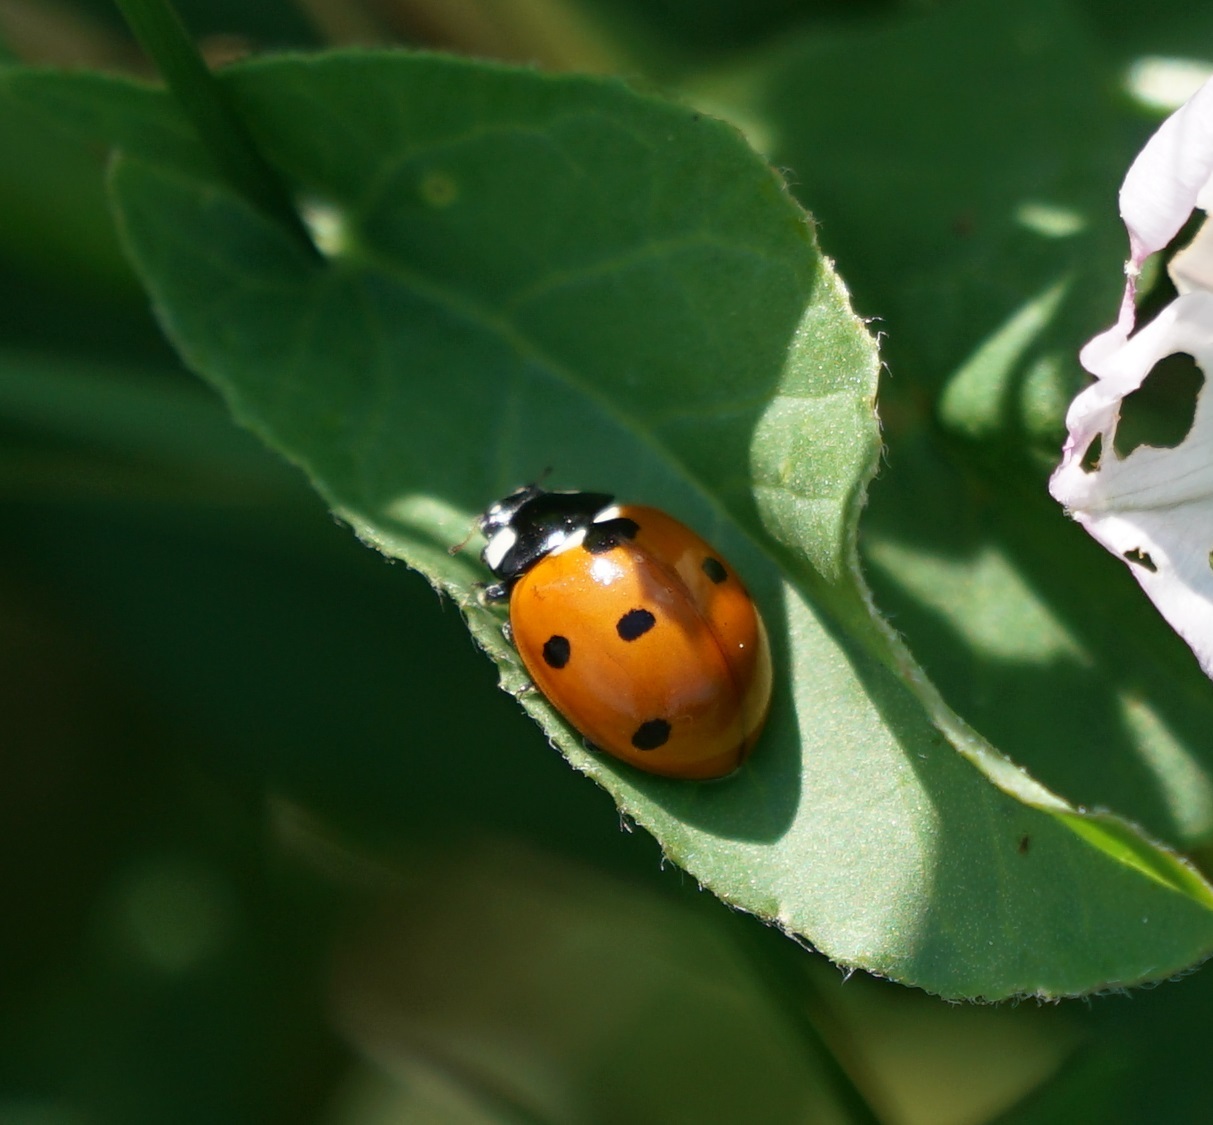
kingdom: Animalia
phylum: Arthropoda
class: Insecta
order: Coleoptera
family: Coccinellidae
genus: Coccinella
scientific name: Coccinella septempunctata
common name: Sevenspotted lady beetle
